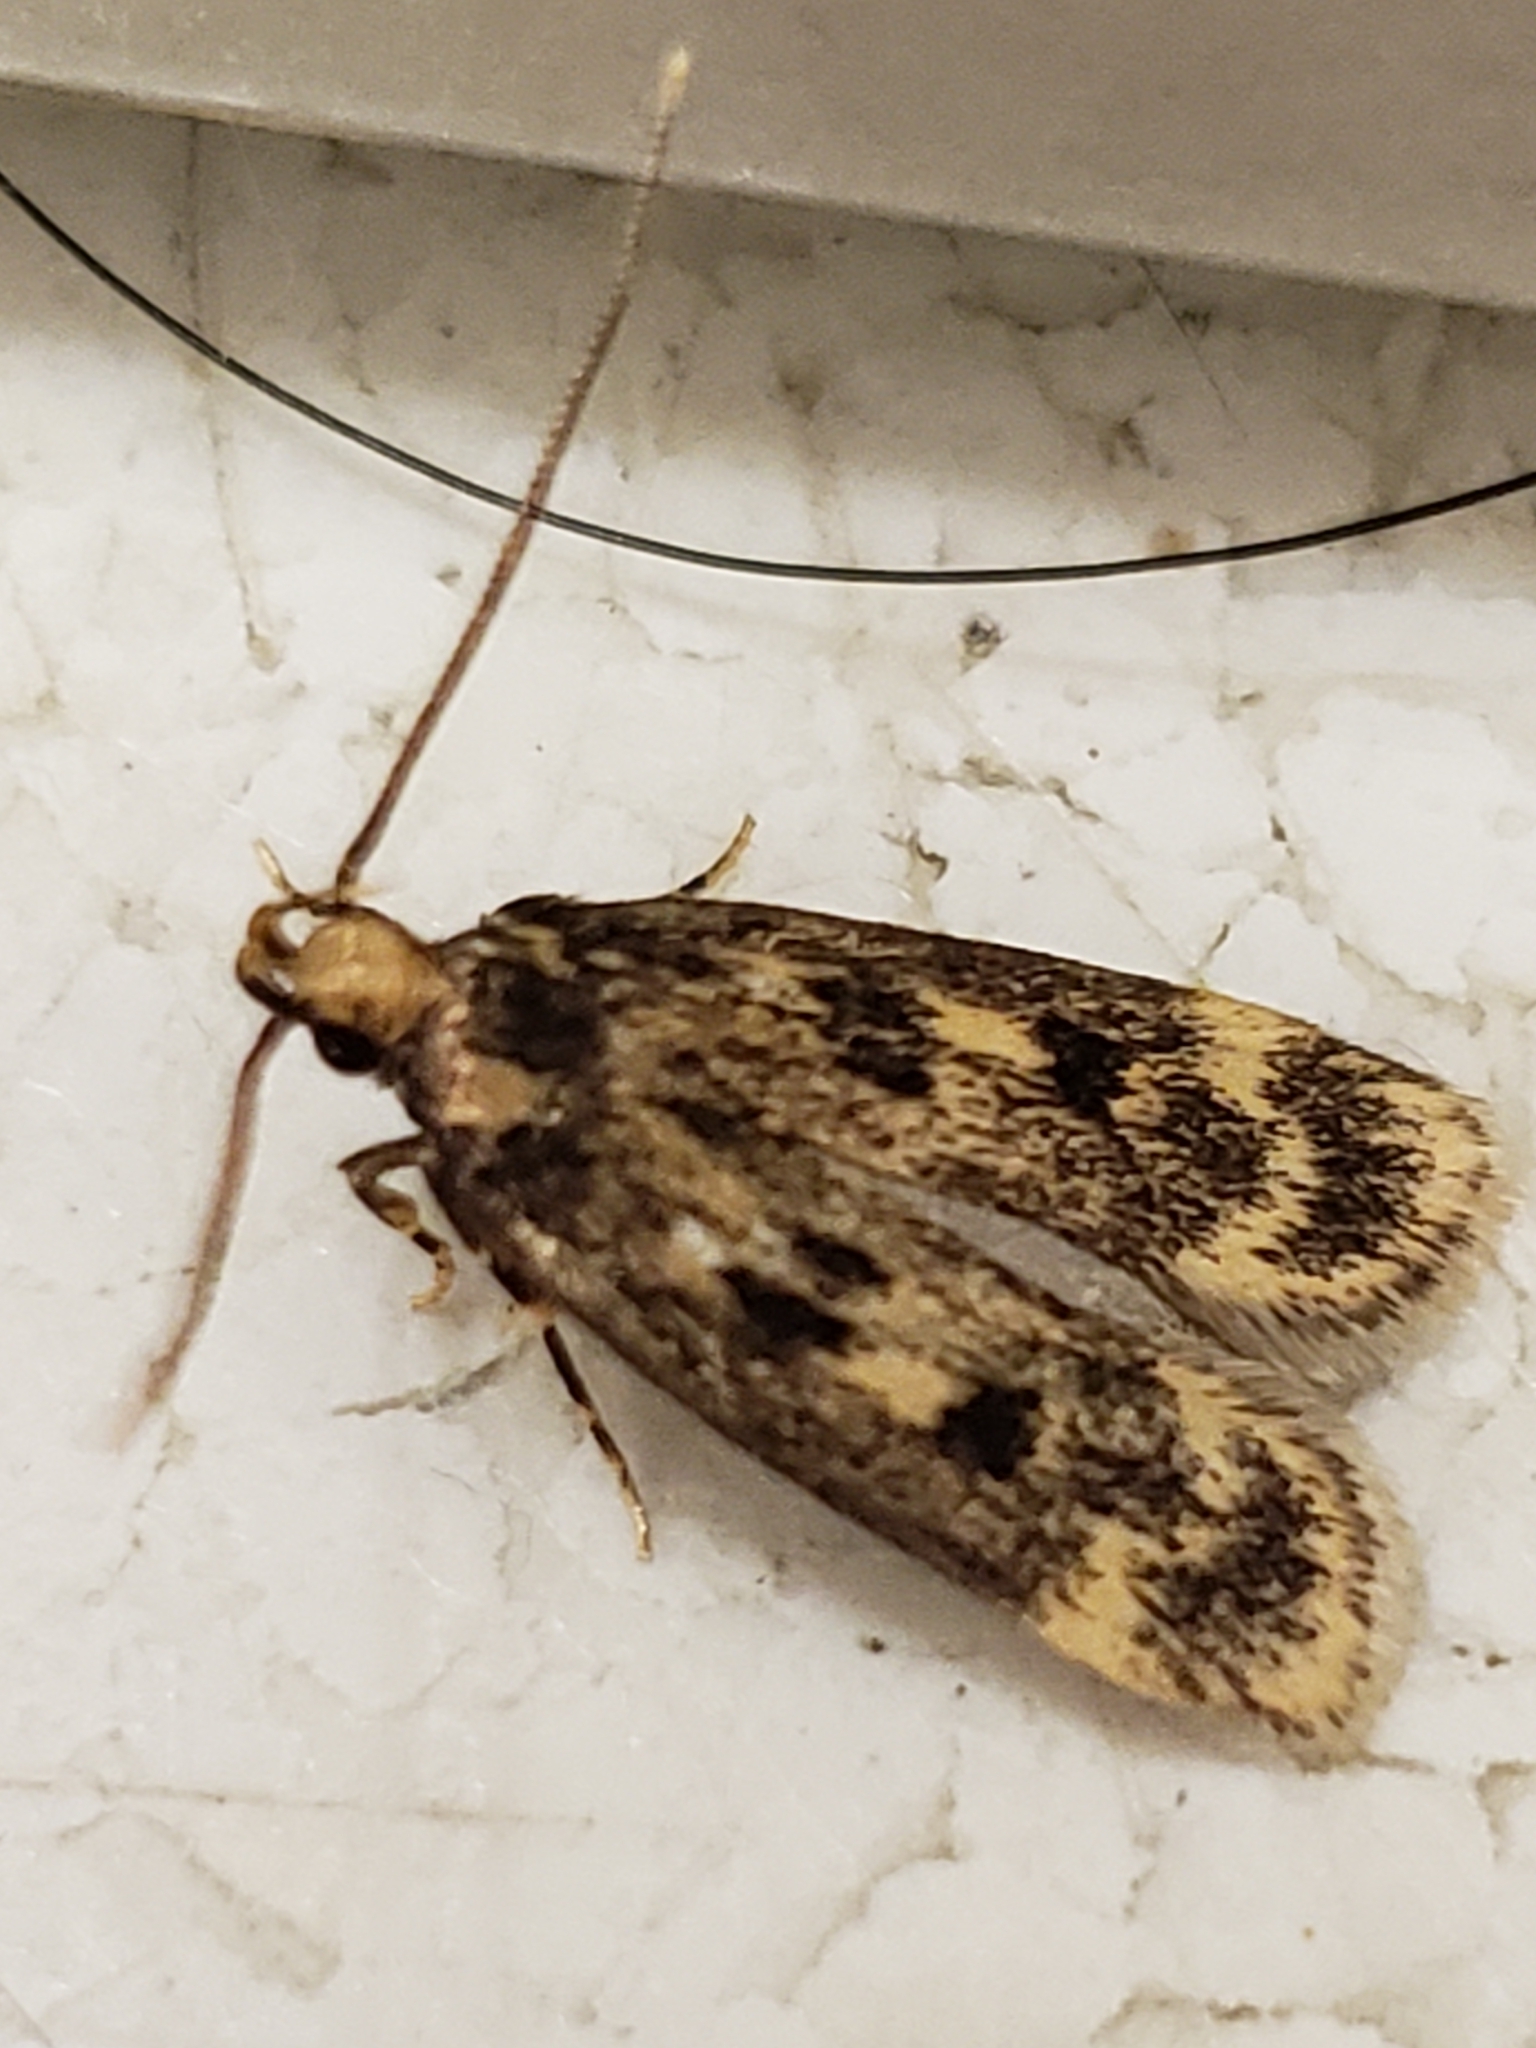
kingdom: Animalia
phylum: Arthropoda
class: Insecta
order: Lepidoptera
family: Lecithoceridae
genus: Martyringa
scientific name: Martyringa latipennis
